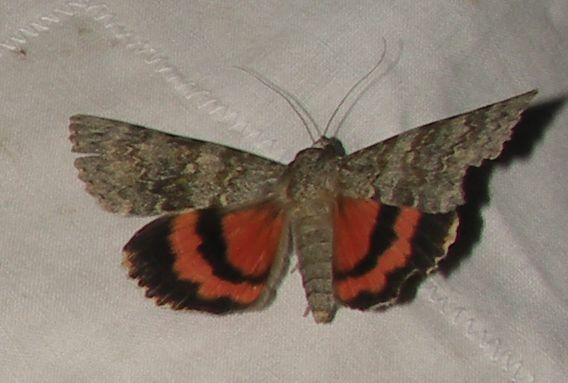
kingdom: Animalia
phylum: Arthropoda
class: Insecta
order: Lepidoptera
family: Erebidae
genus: Catocala
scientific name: Catocala elocata
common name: French red underwing
